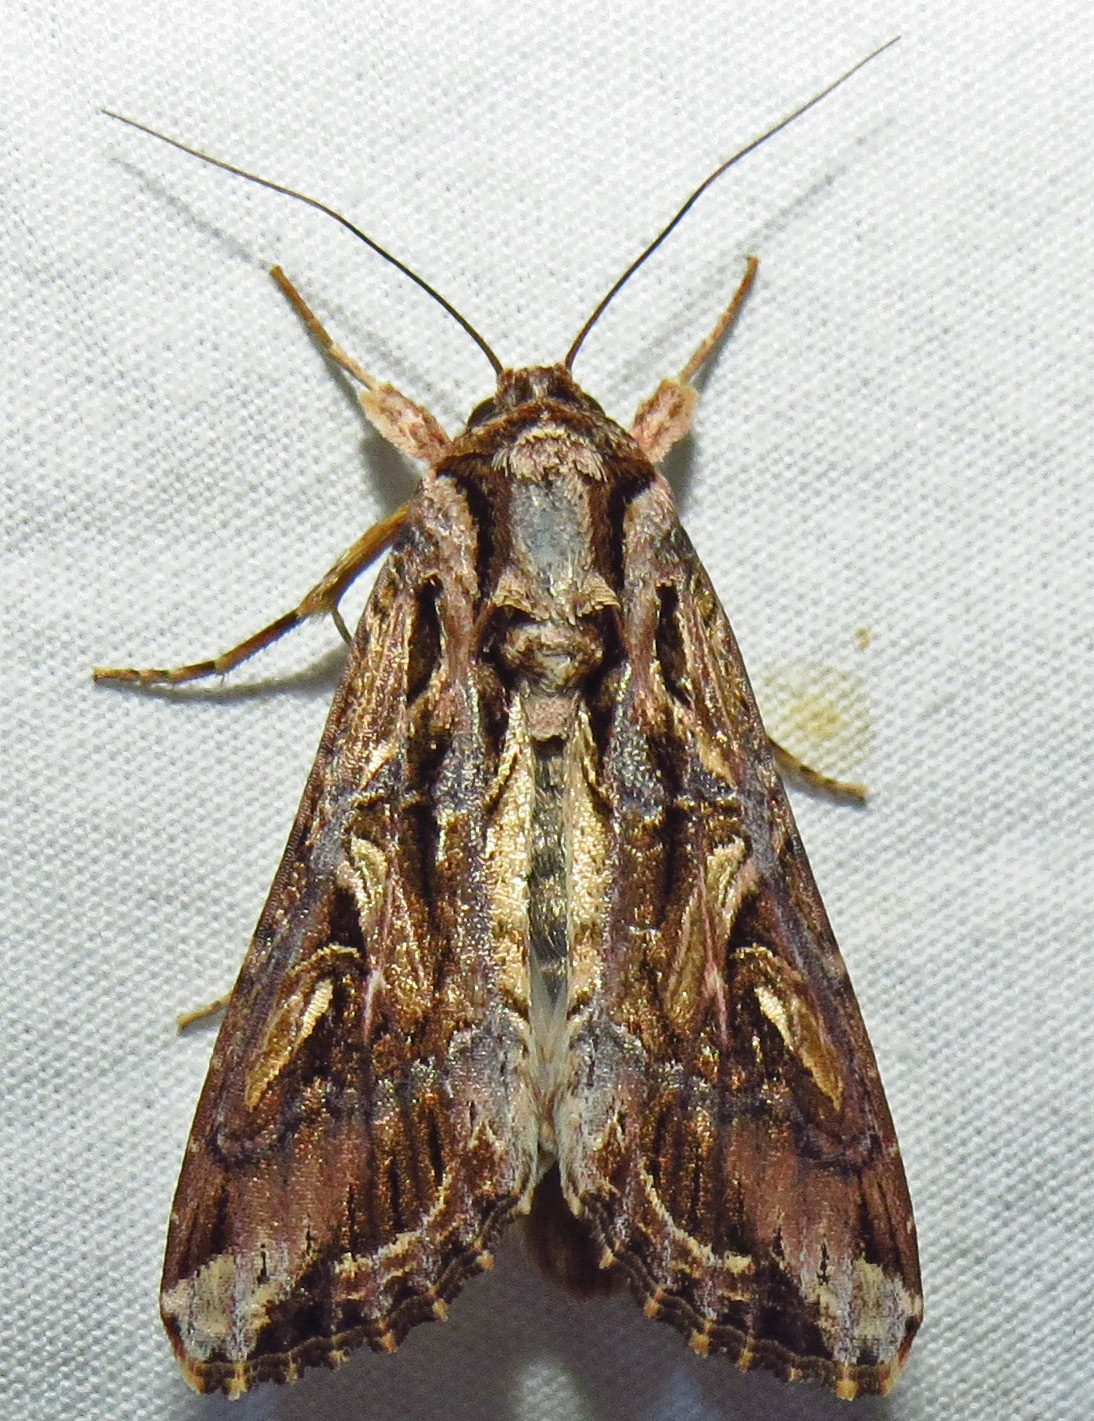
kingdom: Animalia
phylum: Arthropoda
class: Insecta
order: Lepidoptera
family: Noctuidae
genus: Spodoptera
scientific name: Spodoptera dolichos
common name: Sweetpotato armyworm
